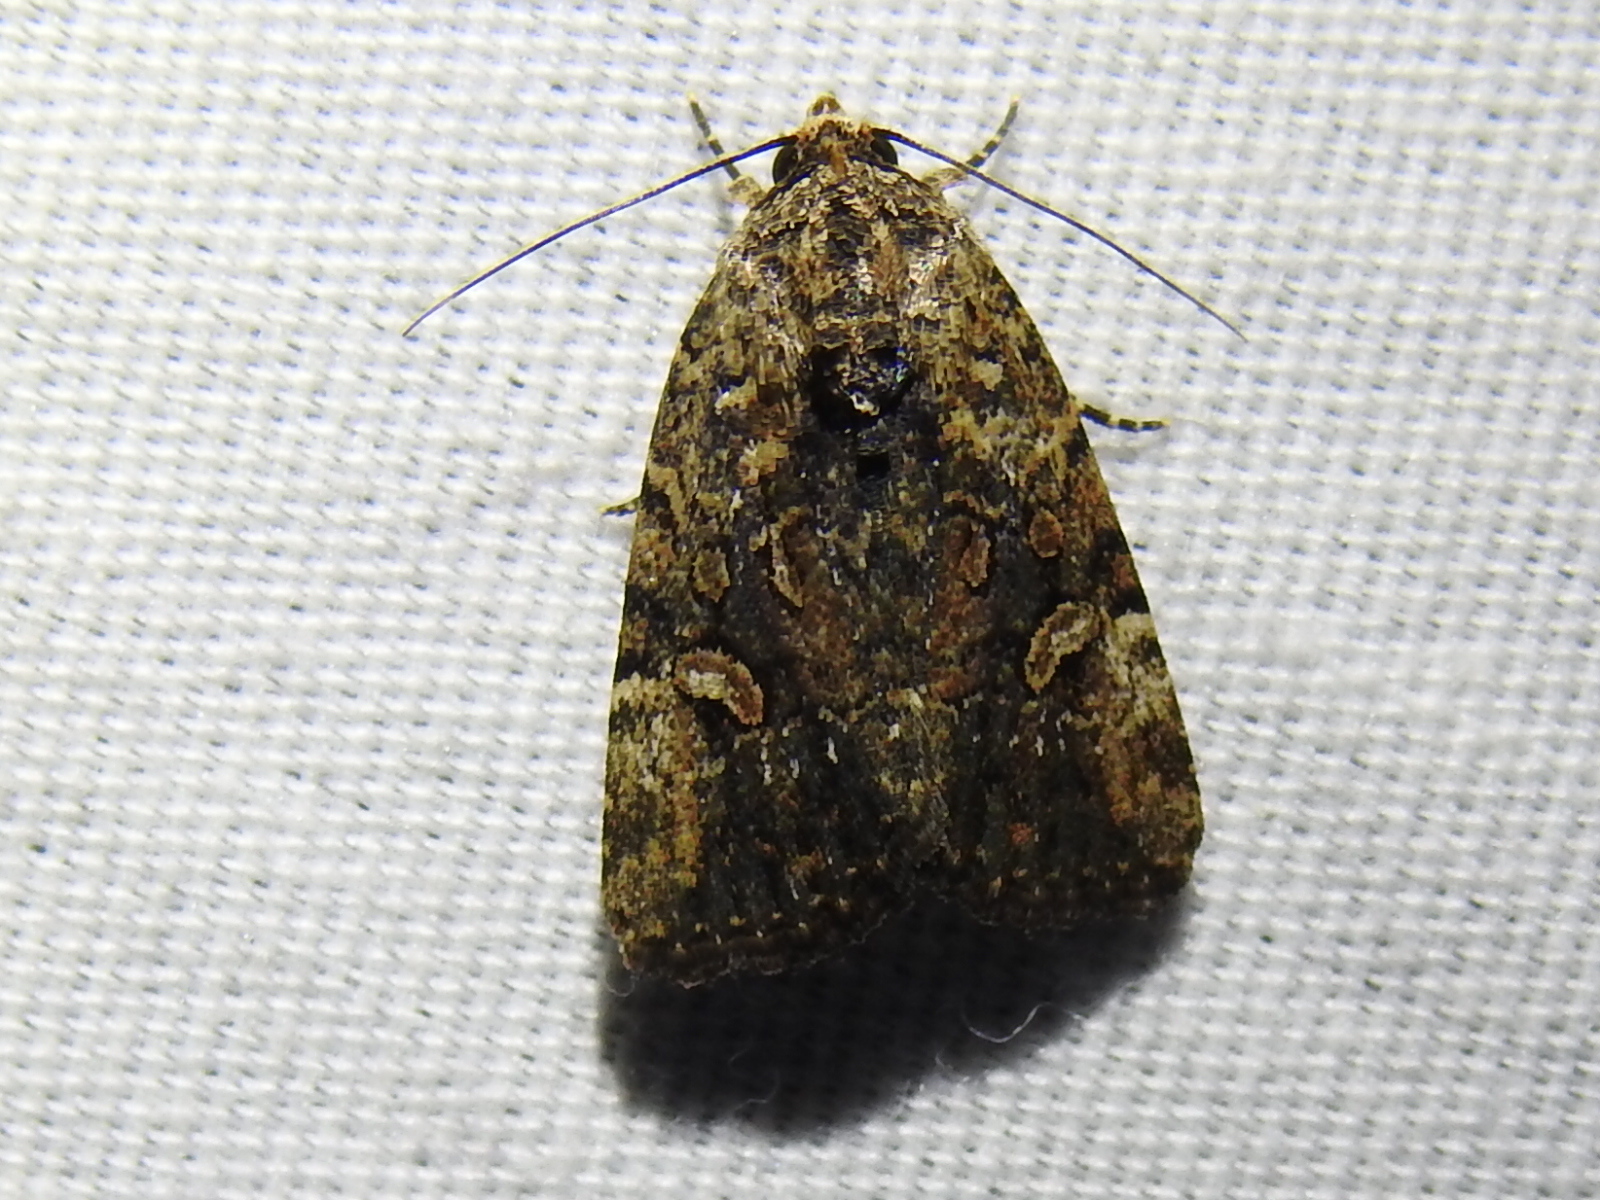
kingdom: Animalia
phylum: Arthropoda
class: Insecta
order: Lepidoptera
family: Noctuidae
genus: Elaphria
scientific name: Elaphria trolia
